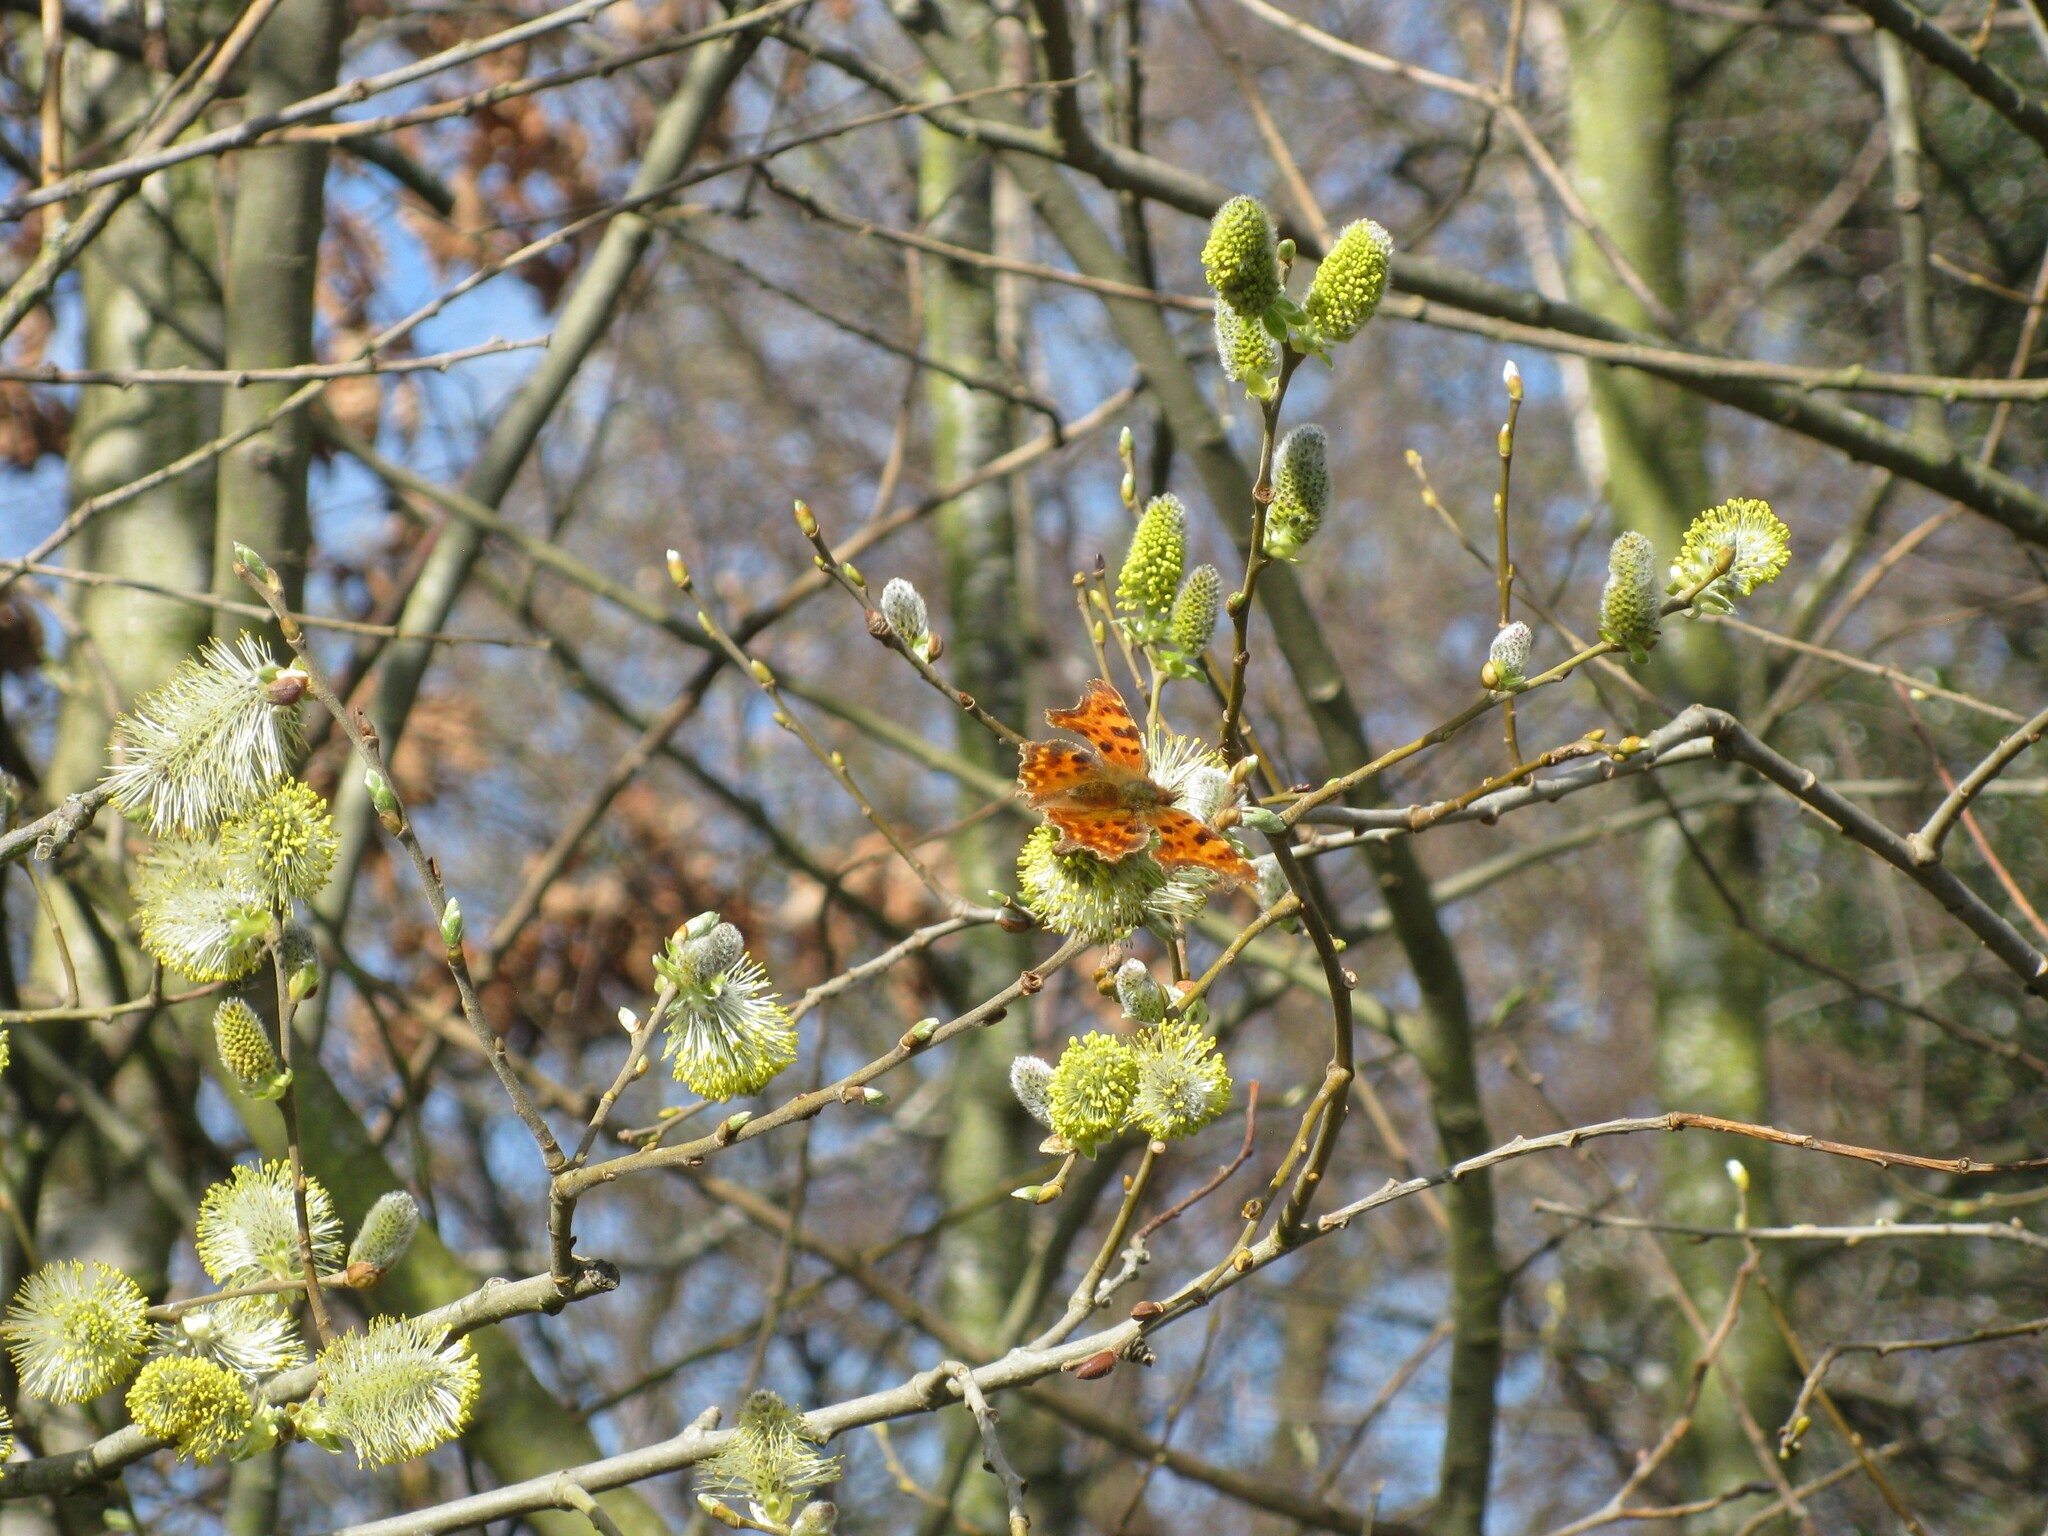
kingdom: Animalia
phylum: Arthropoda
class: Insecta
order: Lepidoptera
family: Nymphalidae
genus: Polygonia
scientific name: Polygonia c-album
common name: Comma
